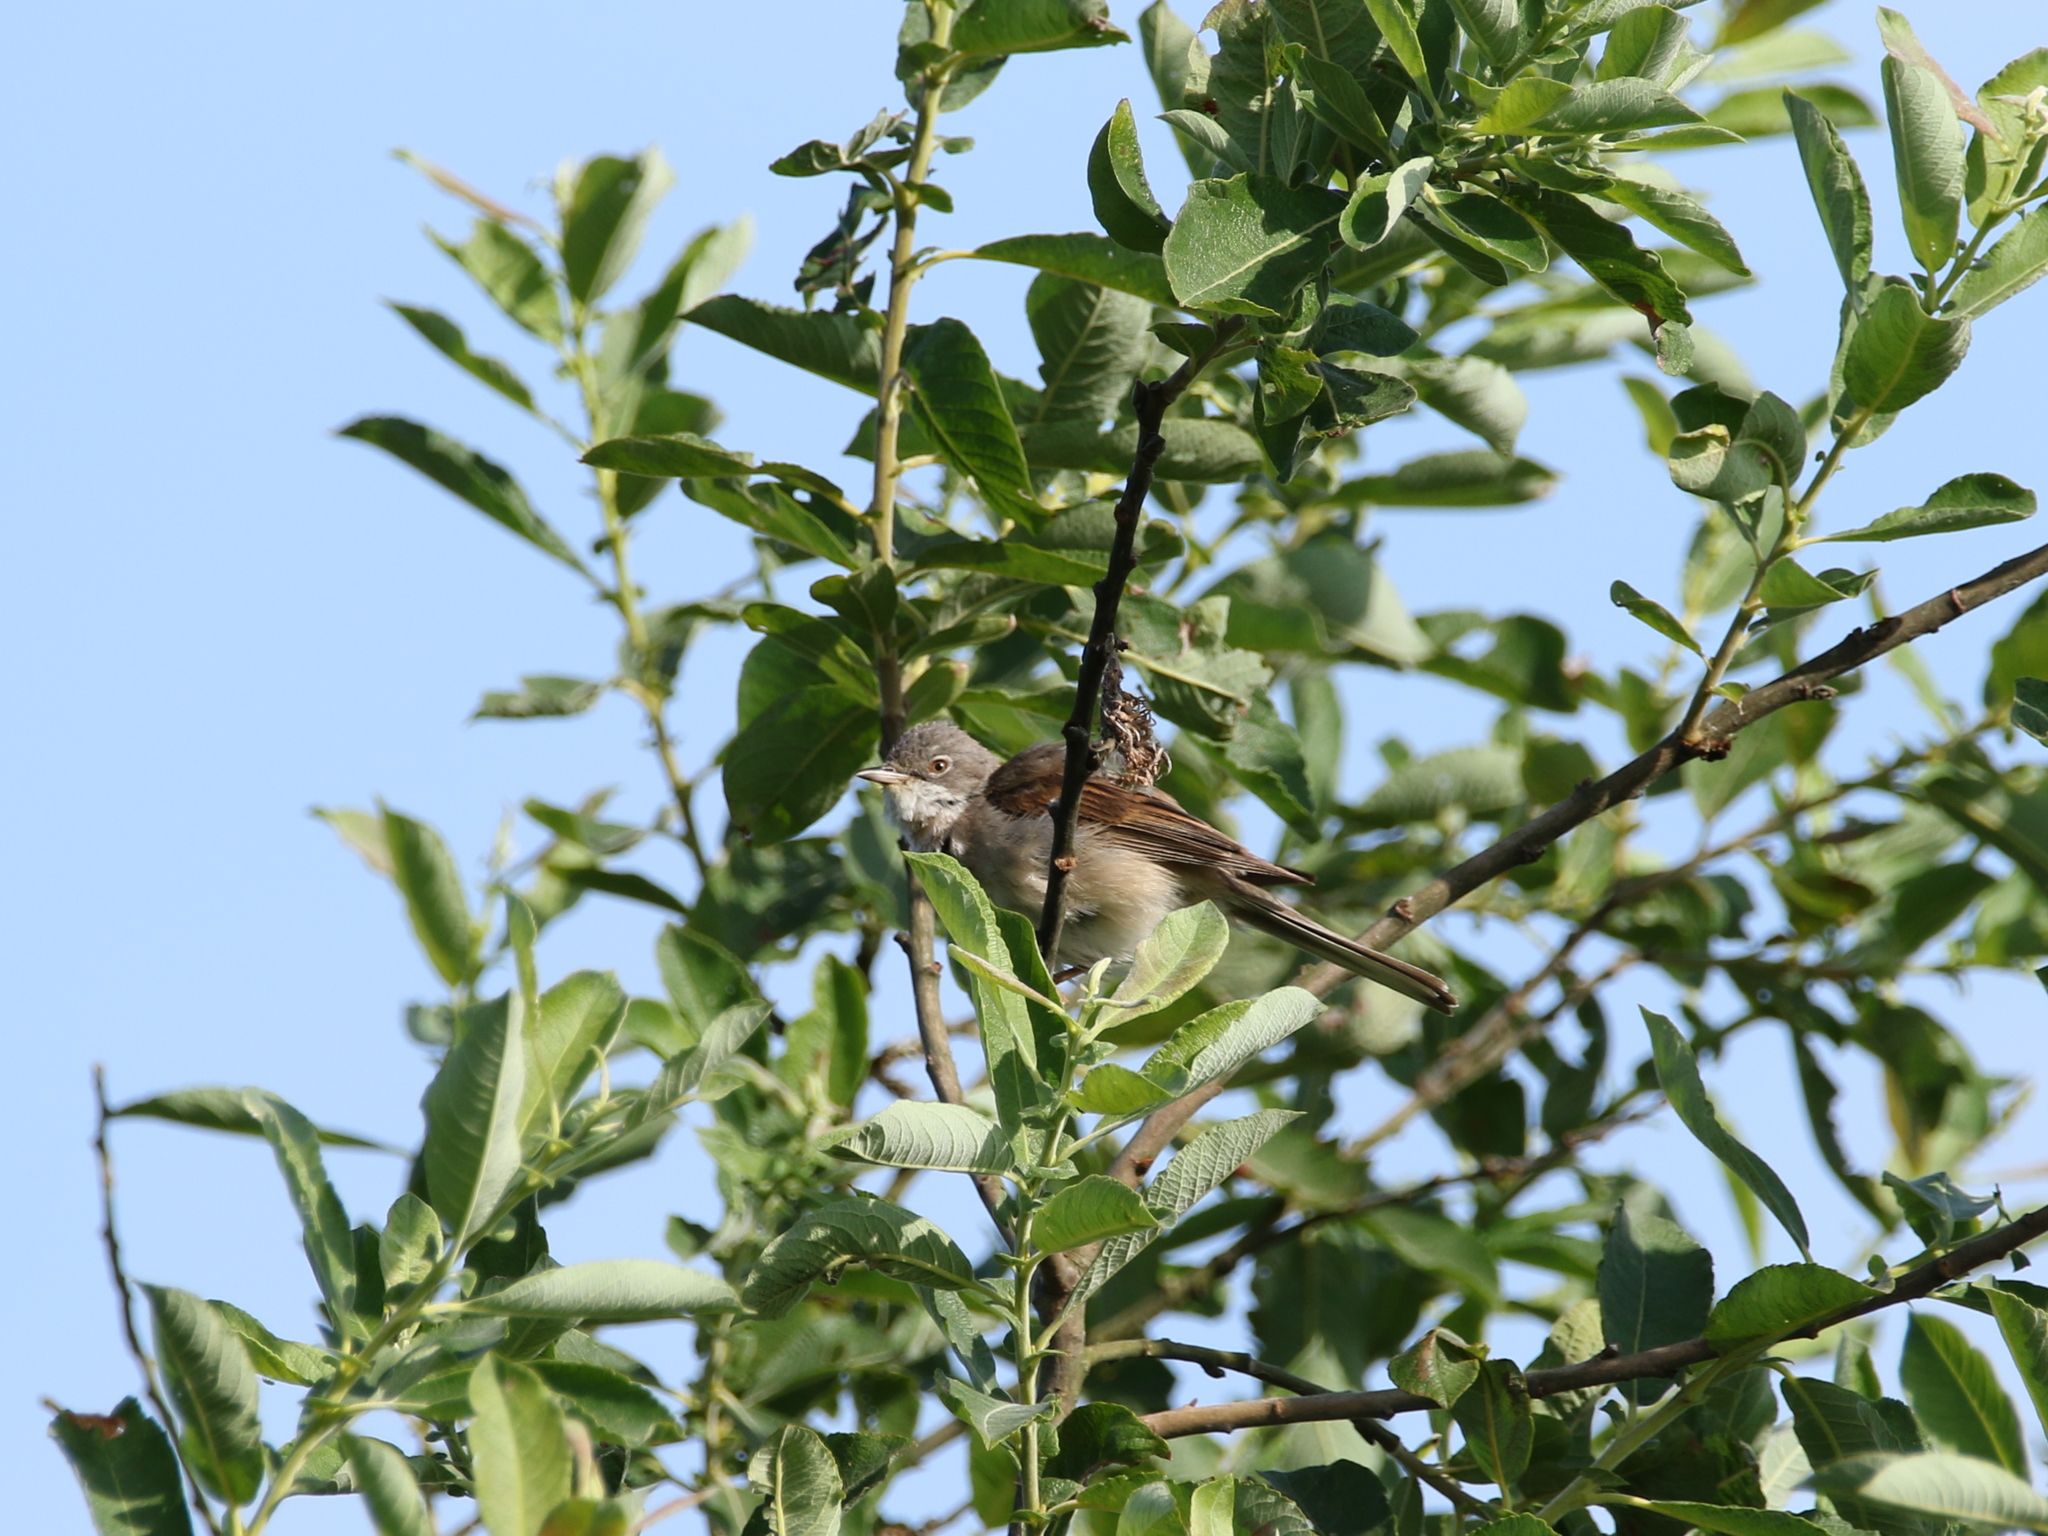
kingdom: Animalia
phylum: Chordata
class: Aves
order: Passeriformes
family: Sylviidae
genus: Sylvia
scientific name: Sylvia communis
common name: Common whitethroat
